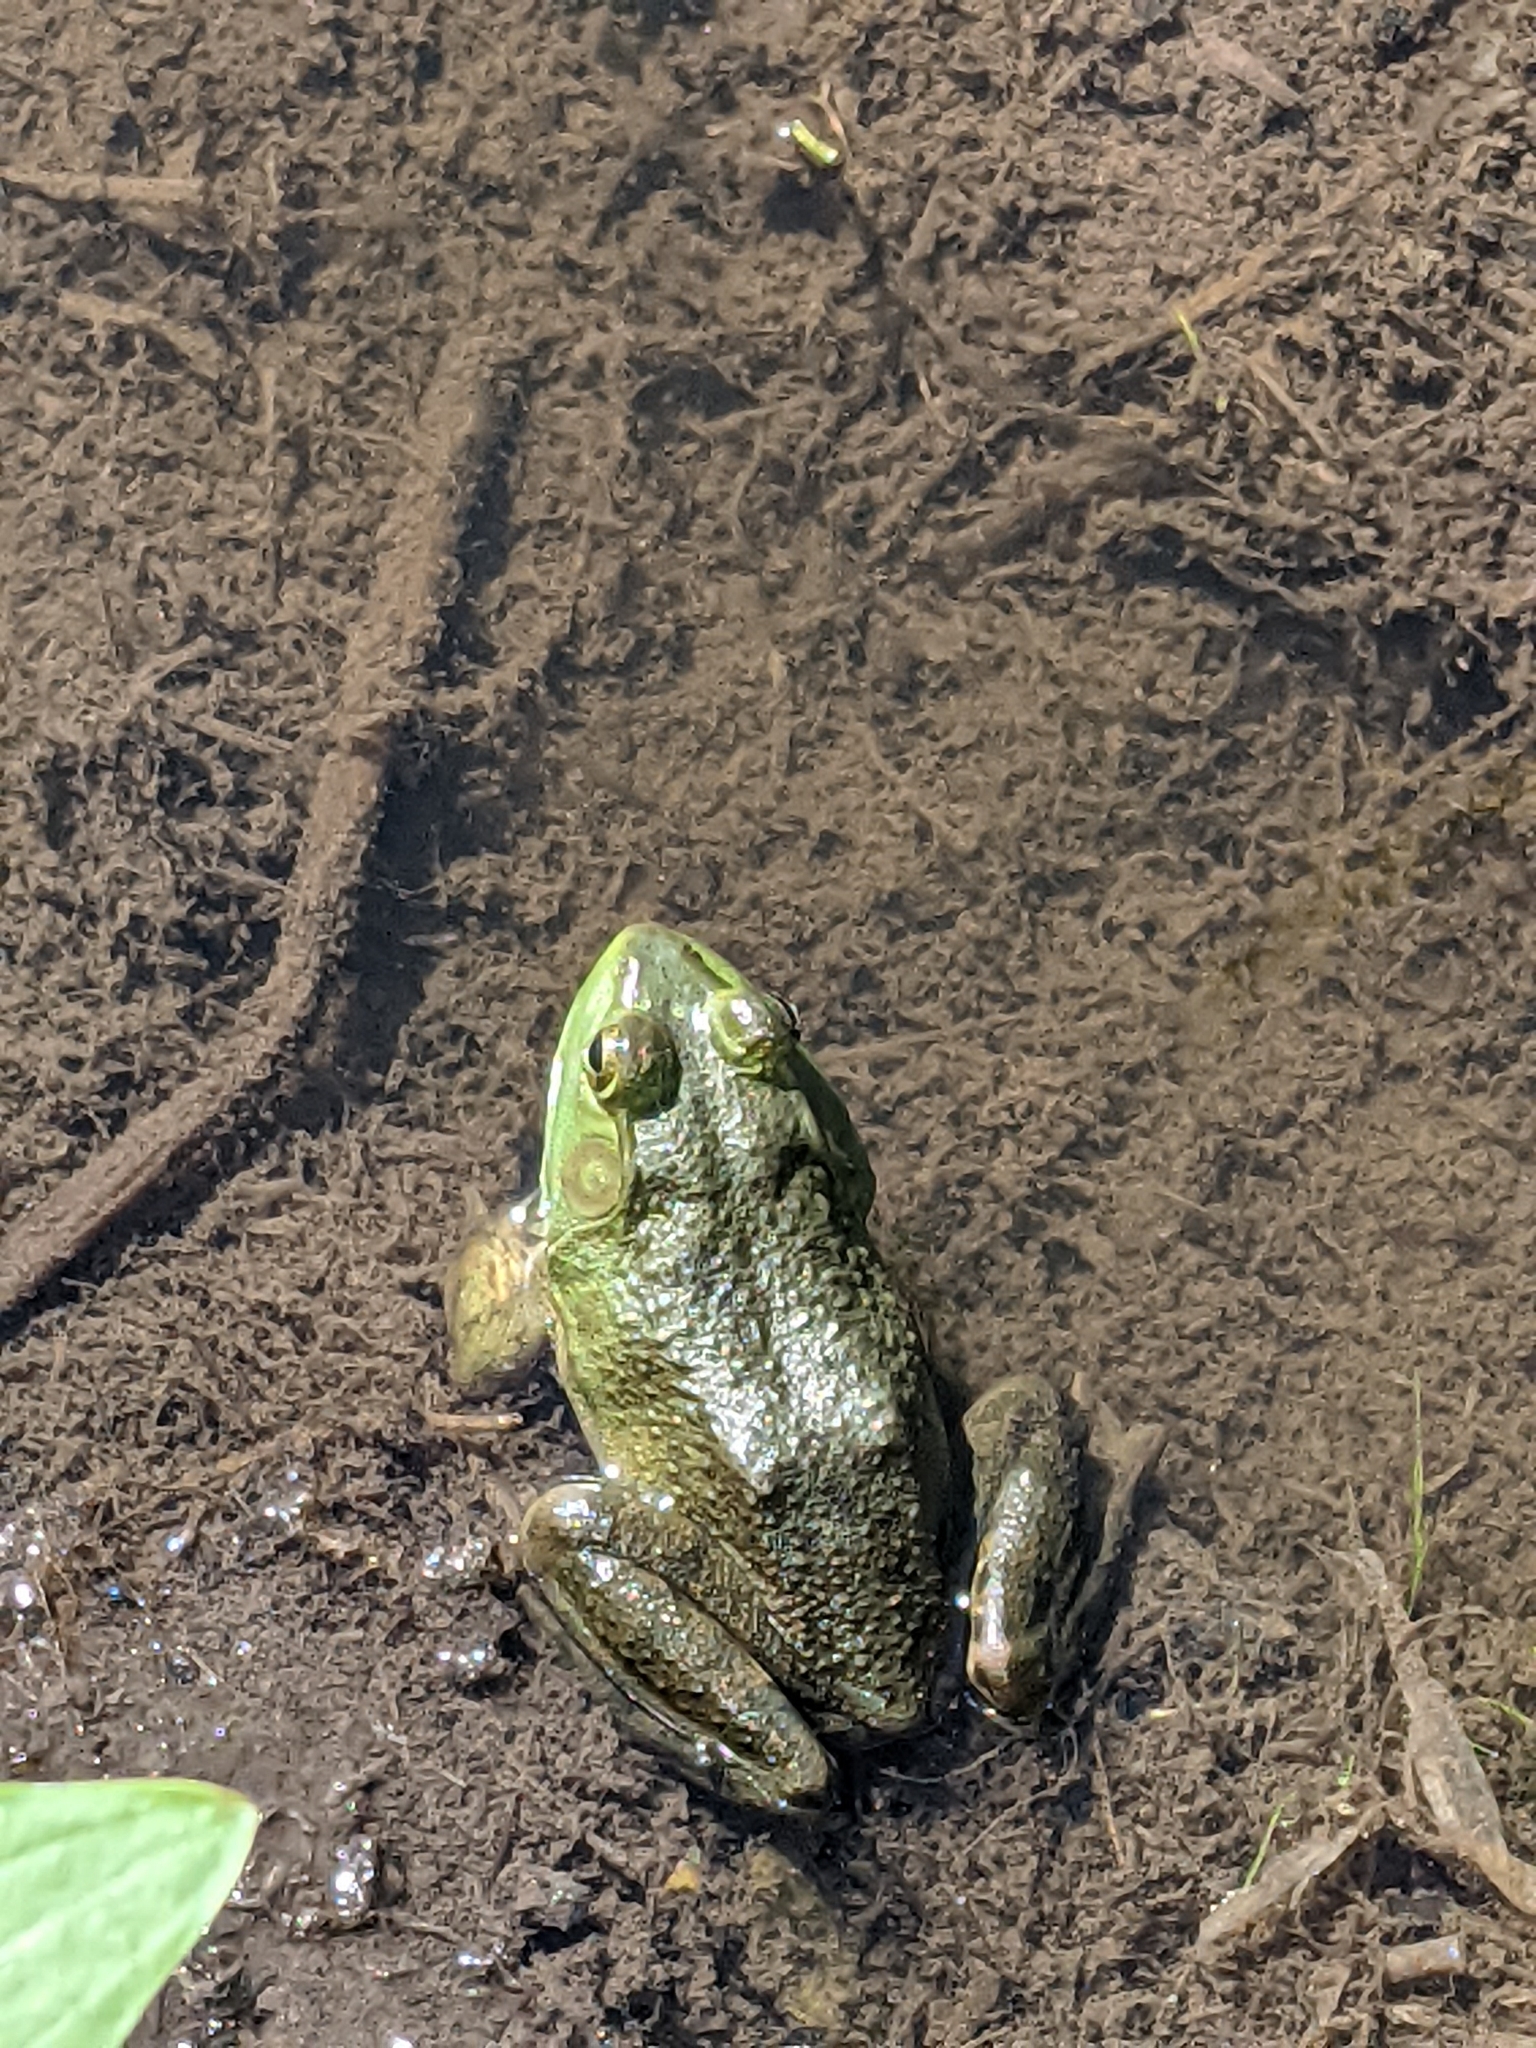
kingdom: Animalia
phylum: Chordata
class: Amphibia
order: Anura
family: Ranidae
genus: Lithobates
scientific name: Lithobates catesbeianus
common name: American bullfrog
